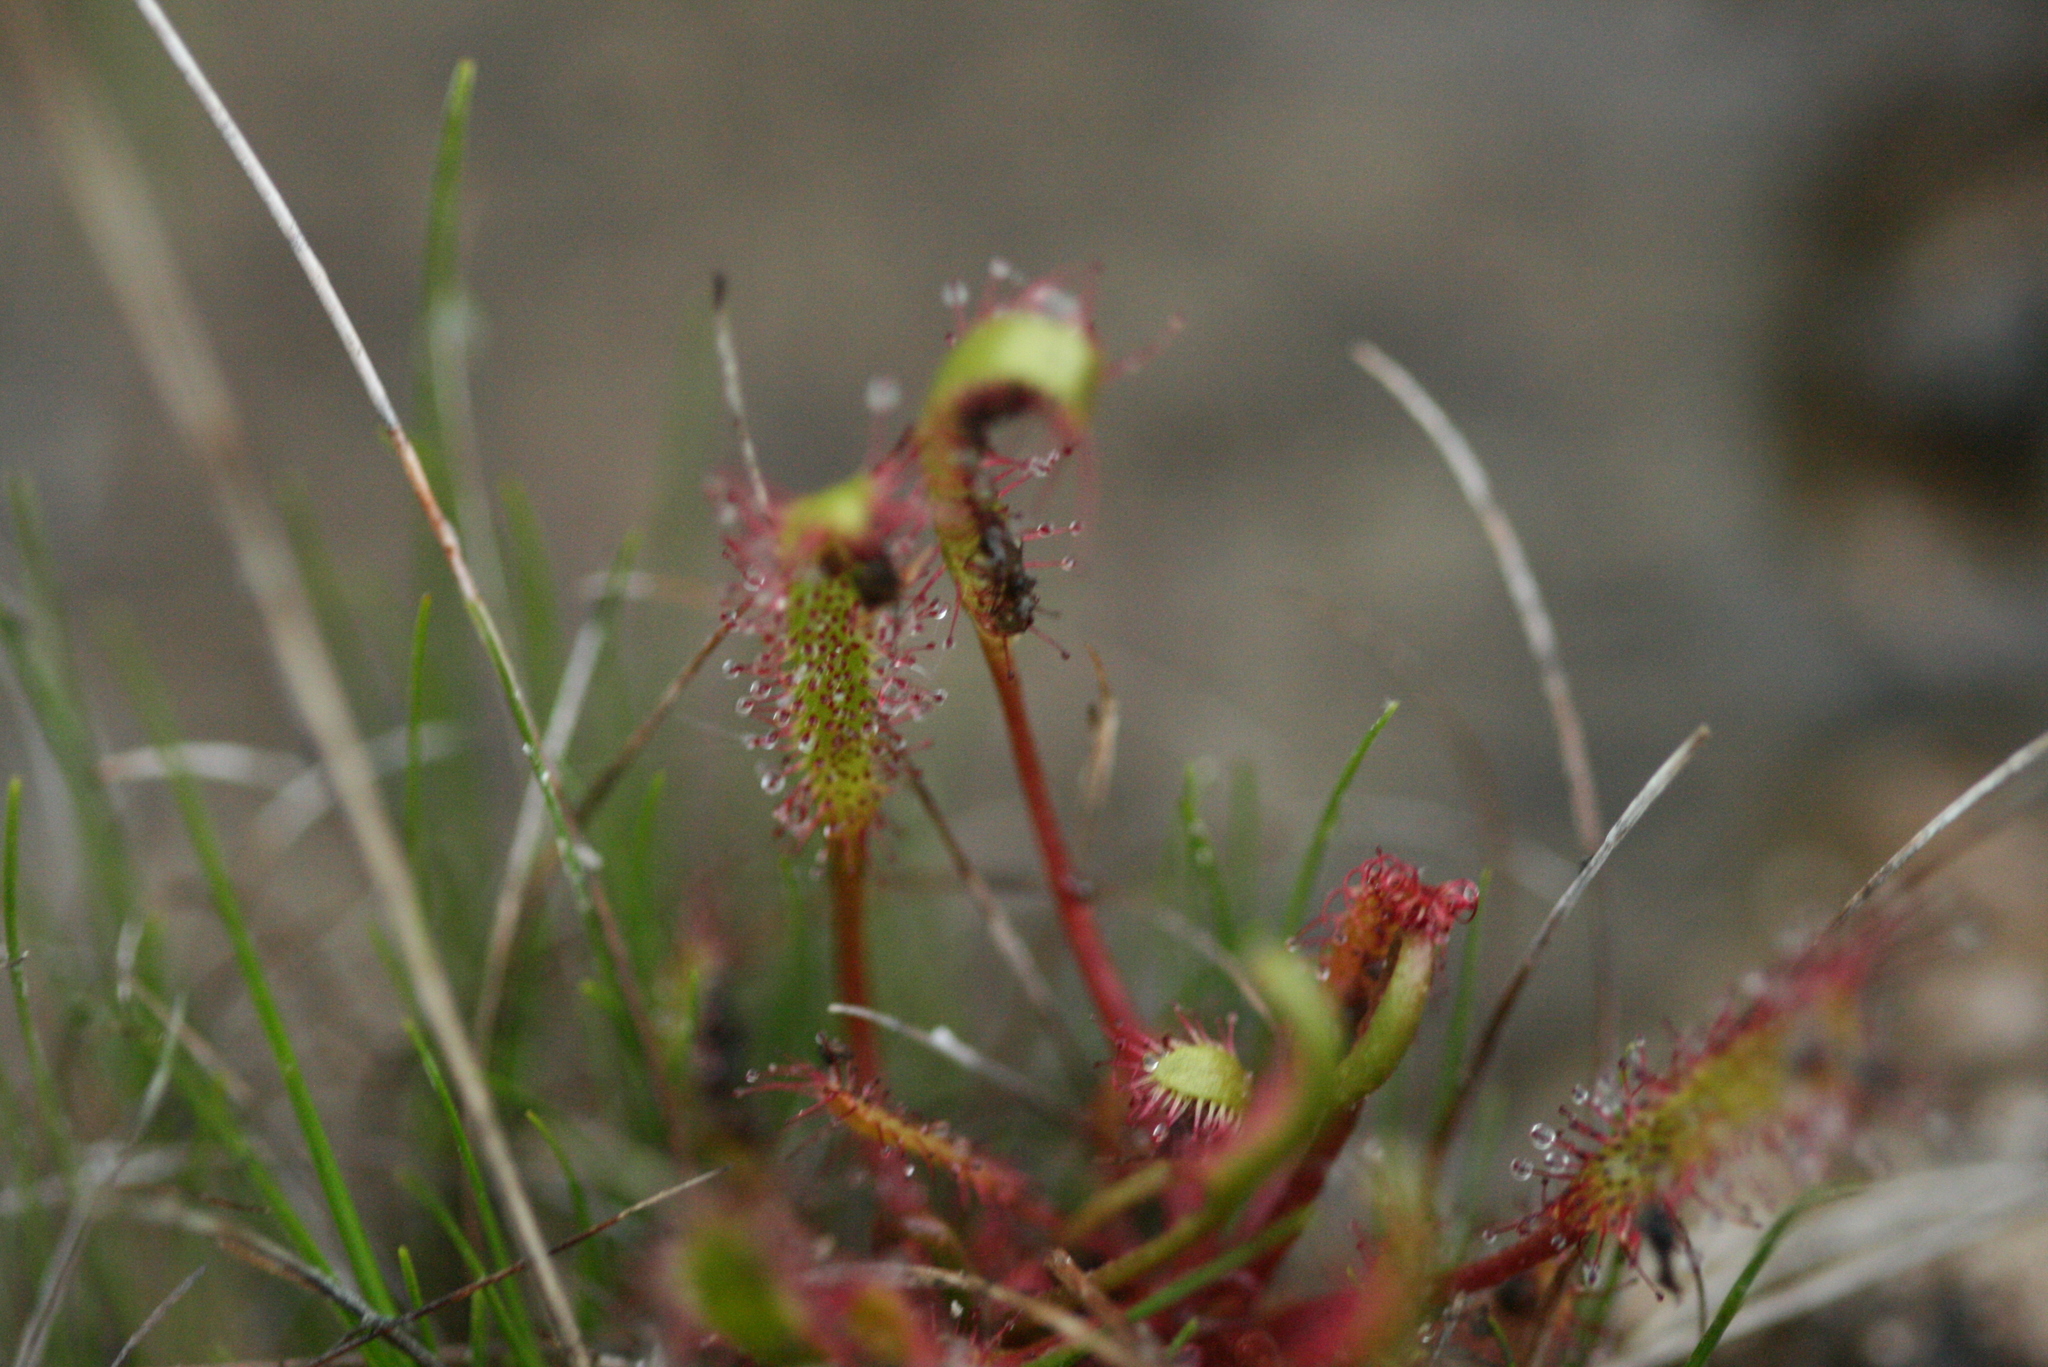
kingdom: Plantae
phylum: Tracheophyta
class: Magnoliopsida
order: Caryophyllales
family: Droseraceae
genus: Drosera
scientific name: Drosera anglica
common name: Great sundew
